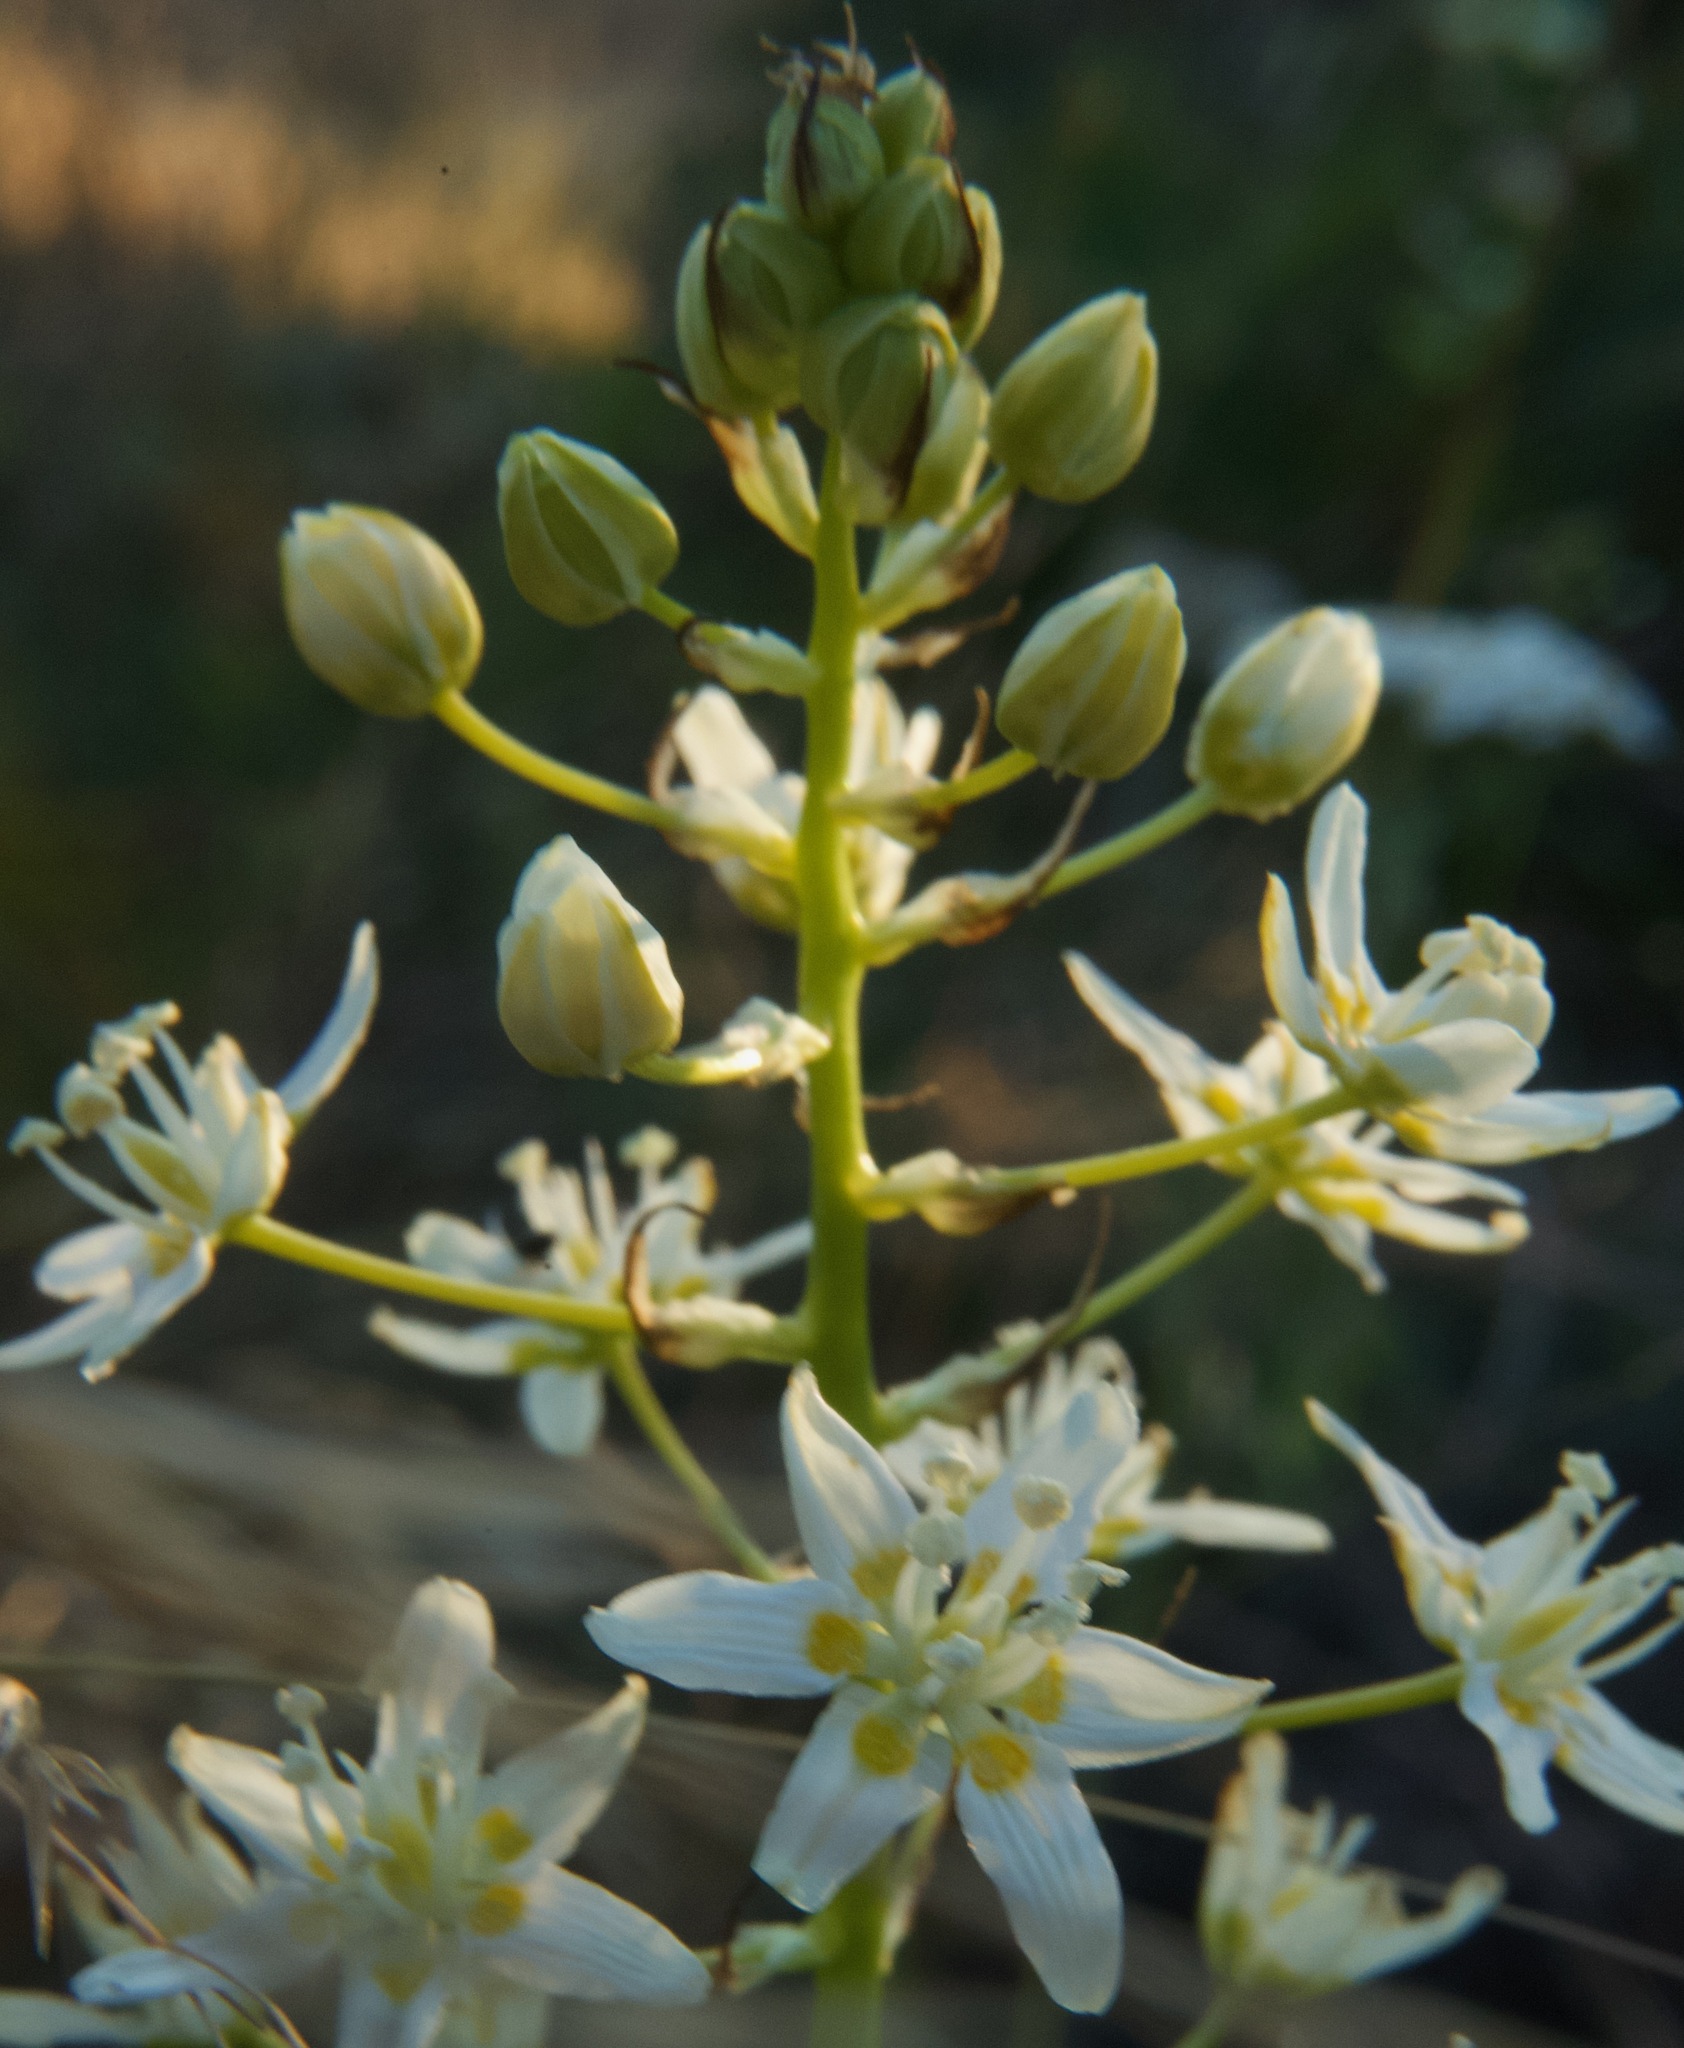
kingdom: Plantae
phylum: Tracheophyta
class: Liliopsida
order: Liliales
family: Melanthiaceae
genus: Toxicoscordion
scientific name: Toxicoscordion fremontii
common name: Fremont's death camas
